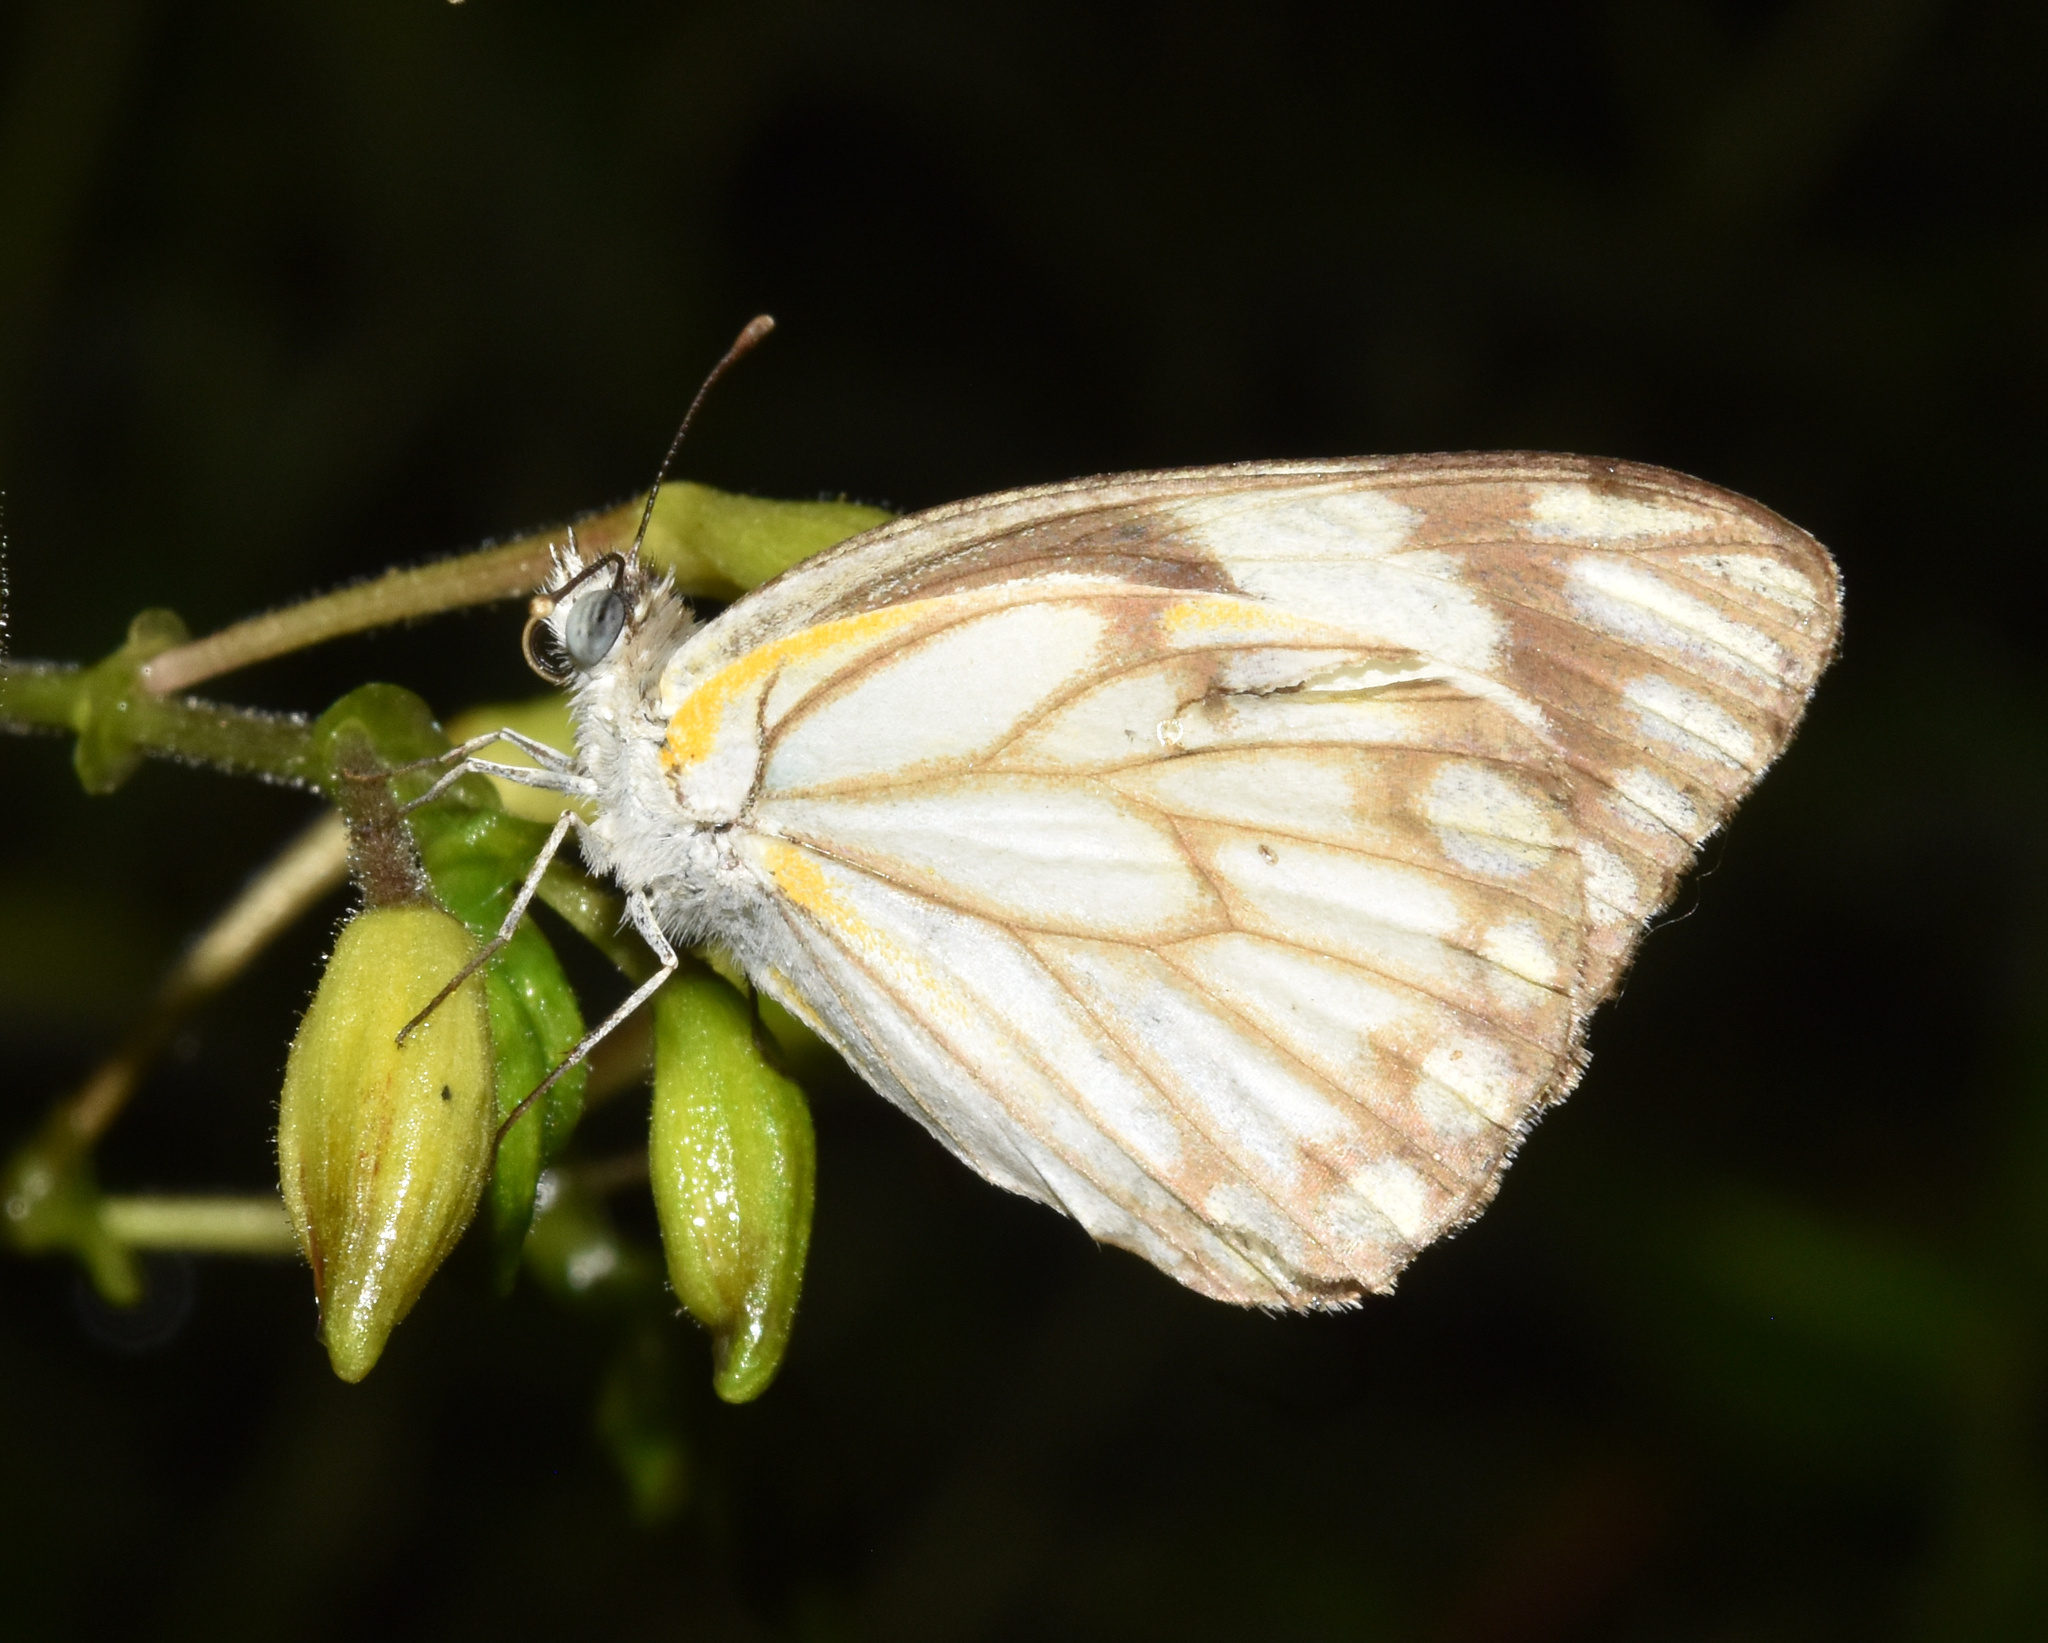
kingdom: Animalia
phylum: Arthropoda
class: Insecta
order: Lepidoptera
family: Pieridae
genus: Belenois
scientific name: Belenois aurota
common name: Brown-veined white
